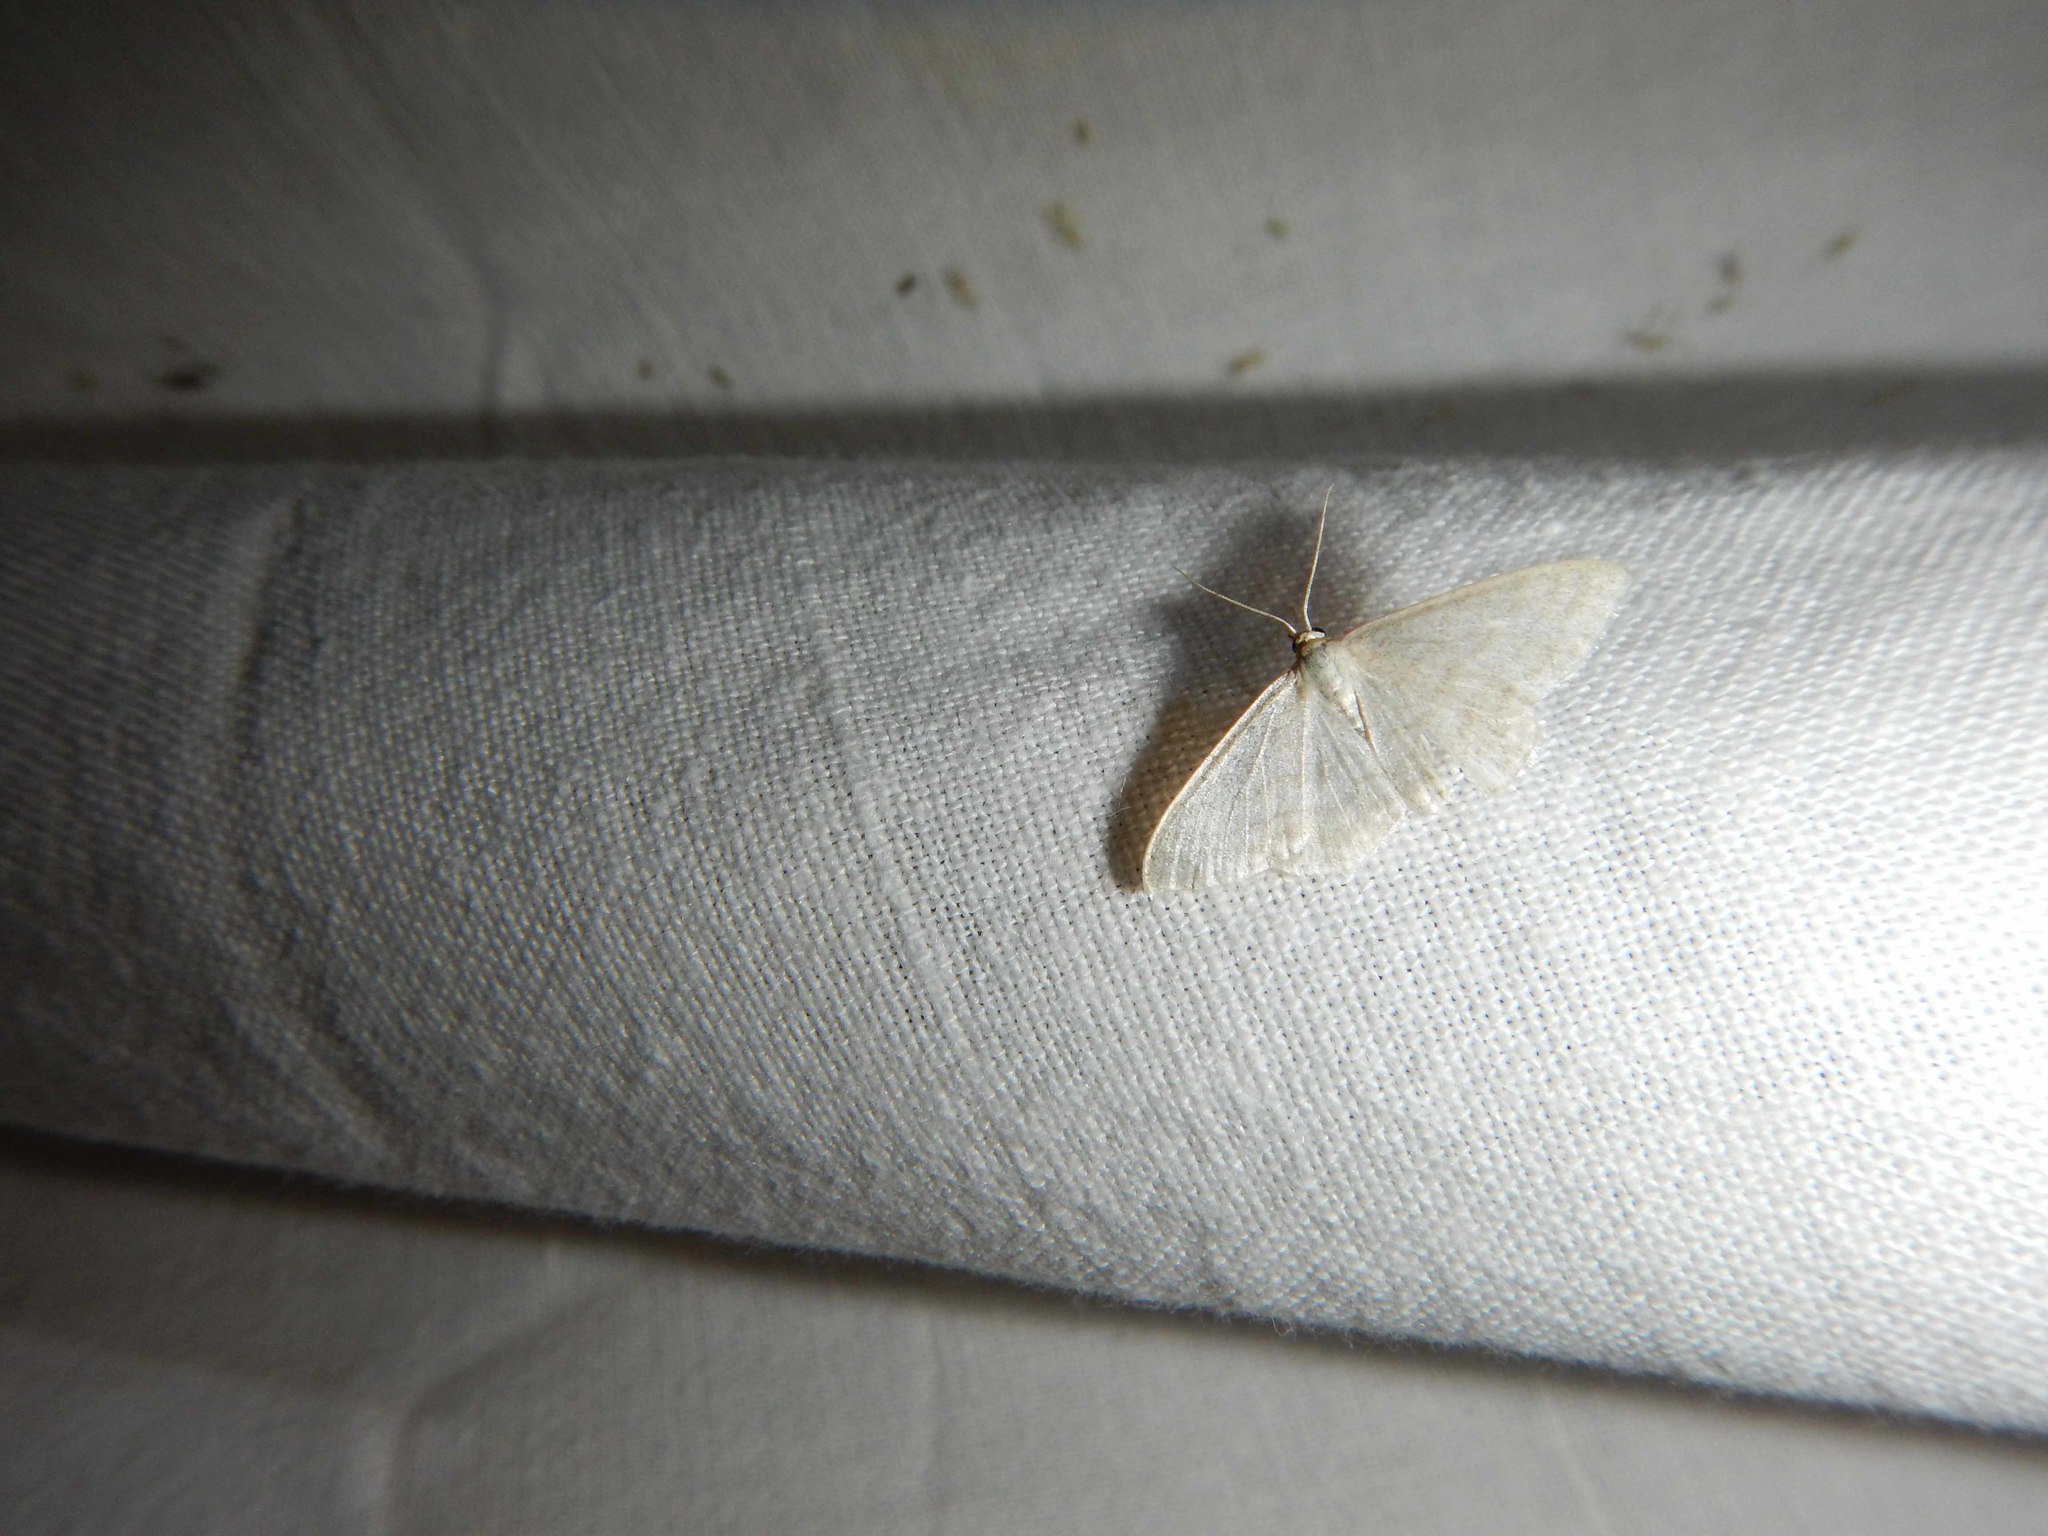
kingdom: Animalia
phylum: Arthropoda
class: Insecta
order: Lepidoptera
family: Geometridae
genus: Idaea
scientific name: Idaea subsericeata
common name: Satin wave
